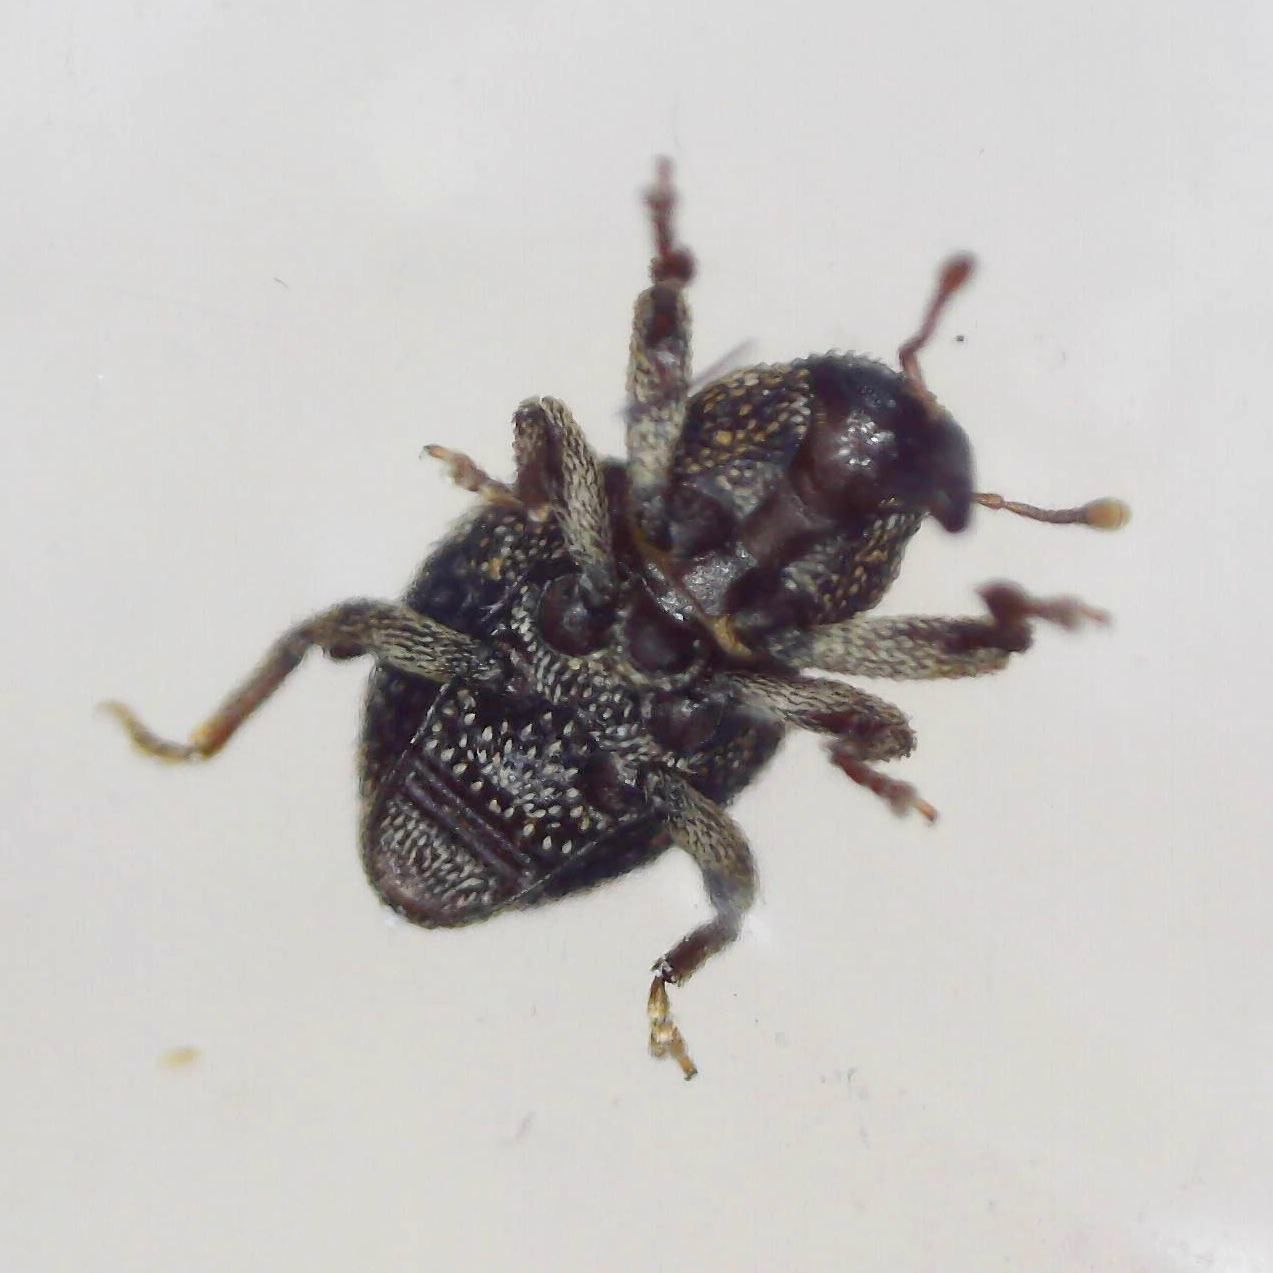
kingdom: Animalia
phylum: Arthropoda
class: Insecta
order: Coleoptera
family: Curculionidae
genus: Acalles
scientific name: Acalles ptinoides
